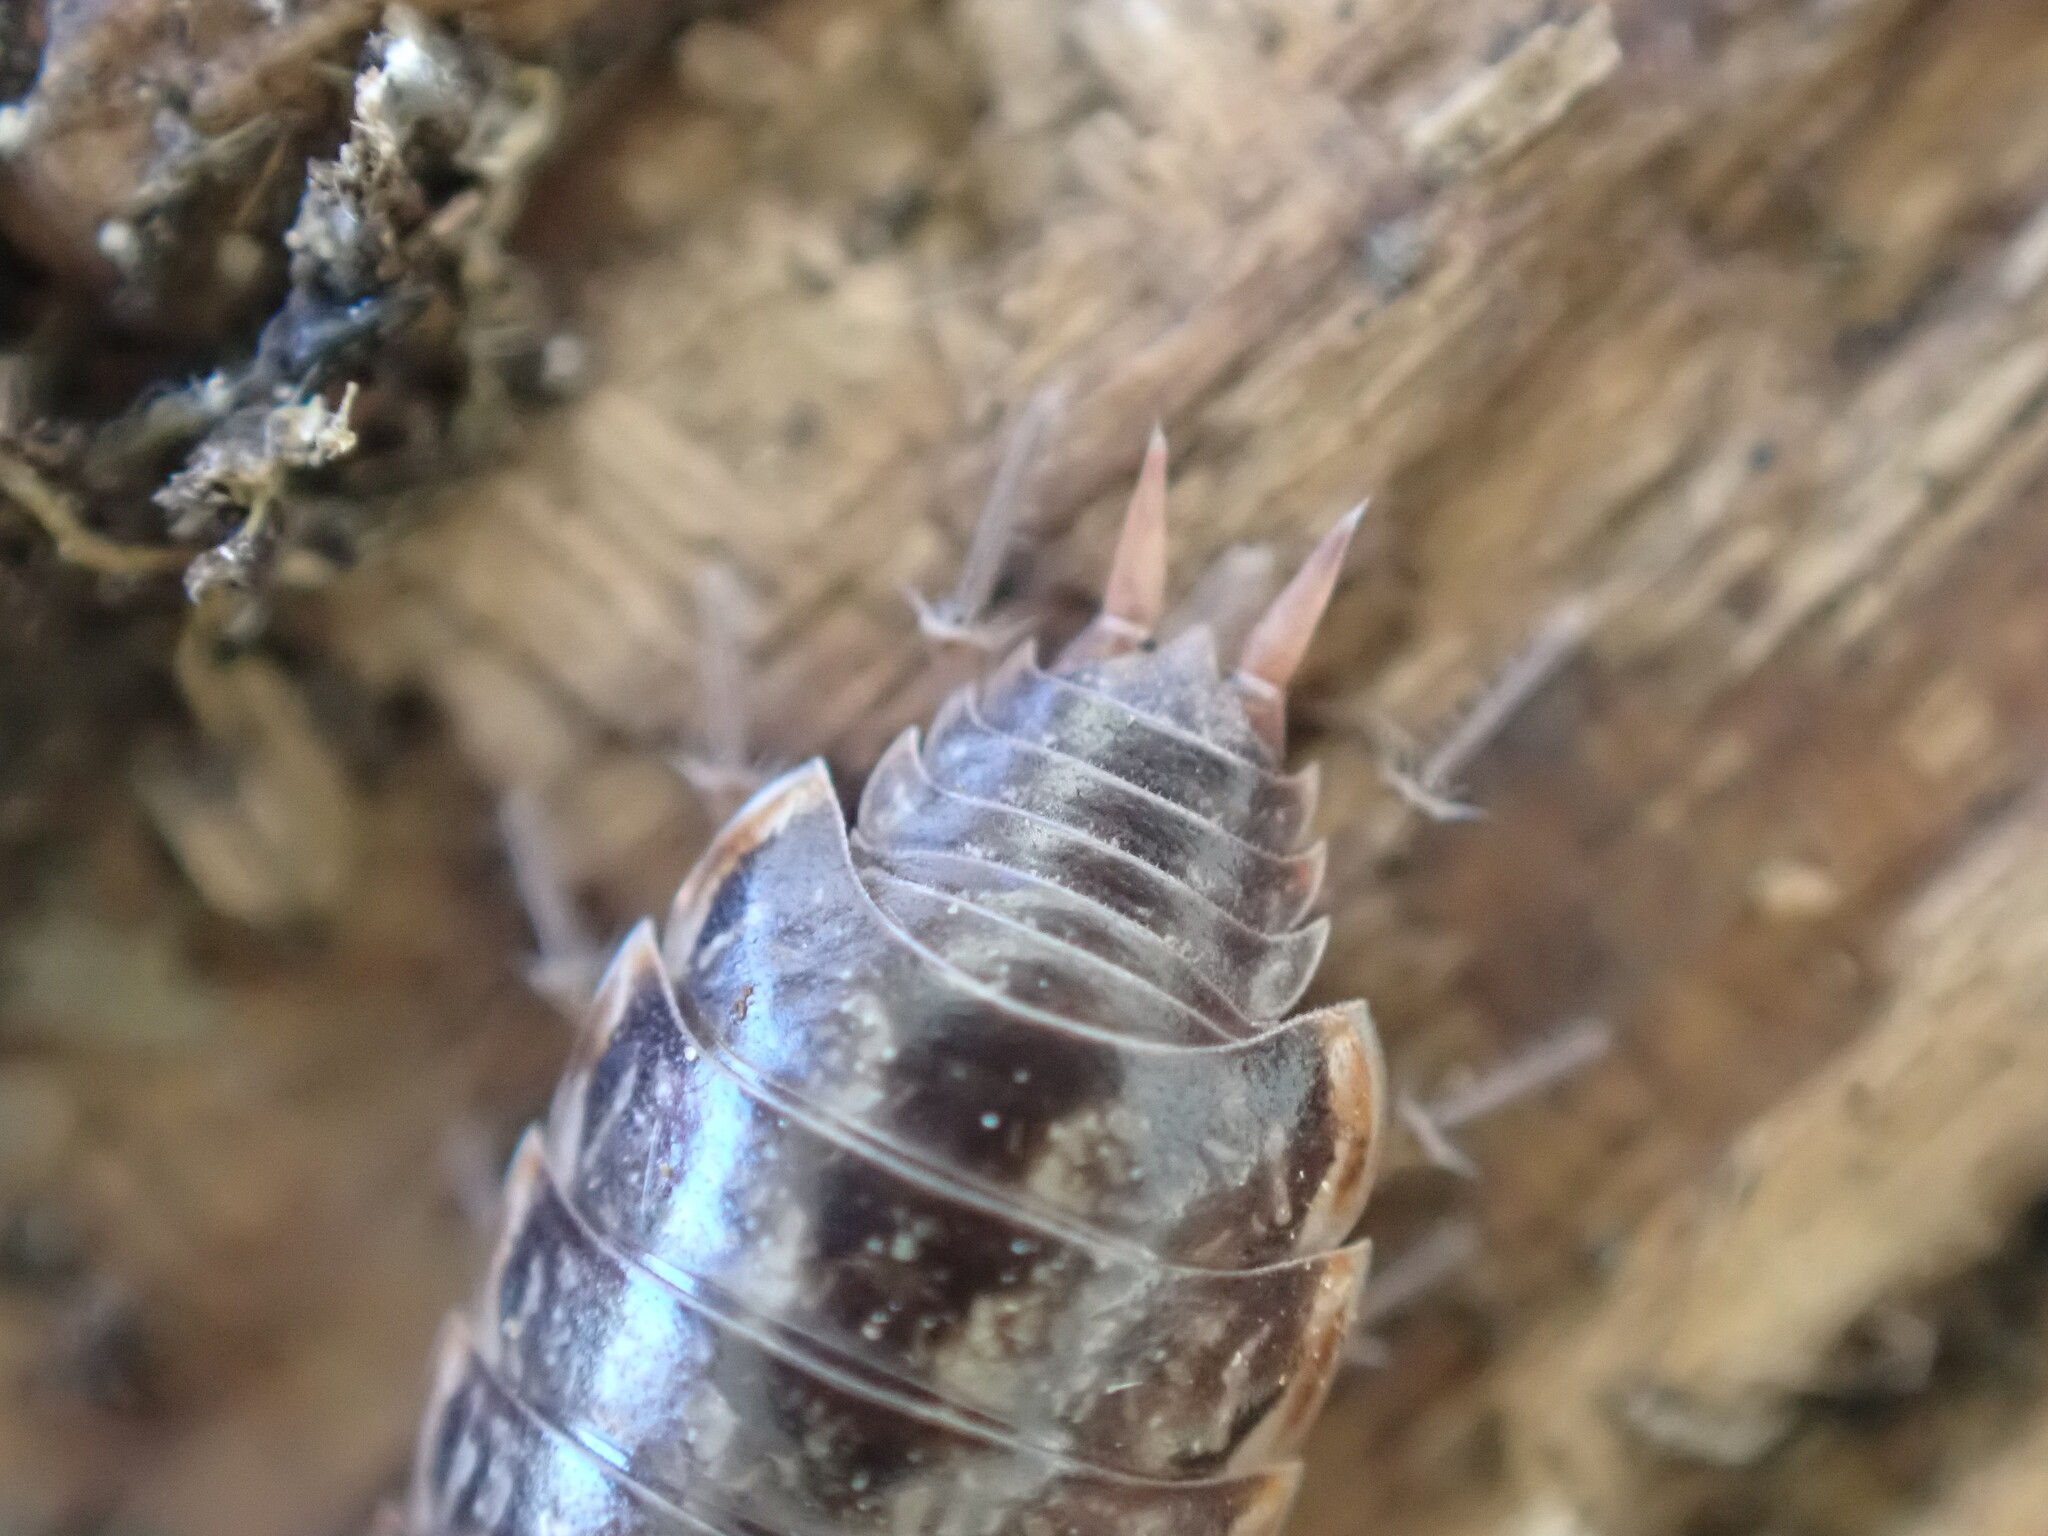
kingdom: Animalia
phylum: Arthropoda
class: Malacostraca
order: Isopoda
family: Philosciidae
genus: Philoscia
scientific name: Philoscia muscorum
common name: Common striped woodlouse
